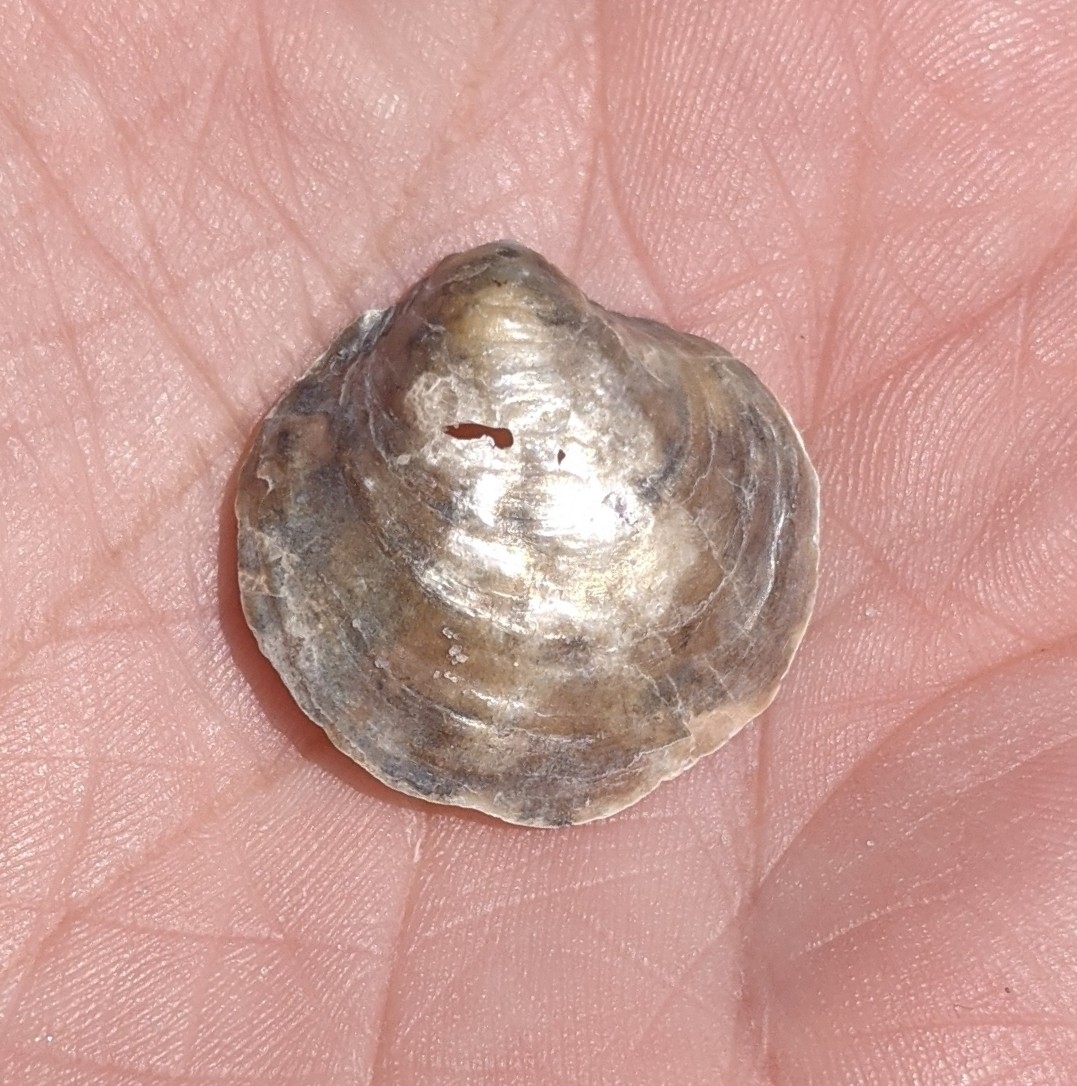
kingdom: Animalia
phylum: Mollusca
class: Bivalvia
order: Pectinida
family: Anomiidae
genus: Anomia
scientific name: Anomia simplex
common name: Common jingle shell
